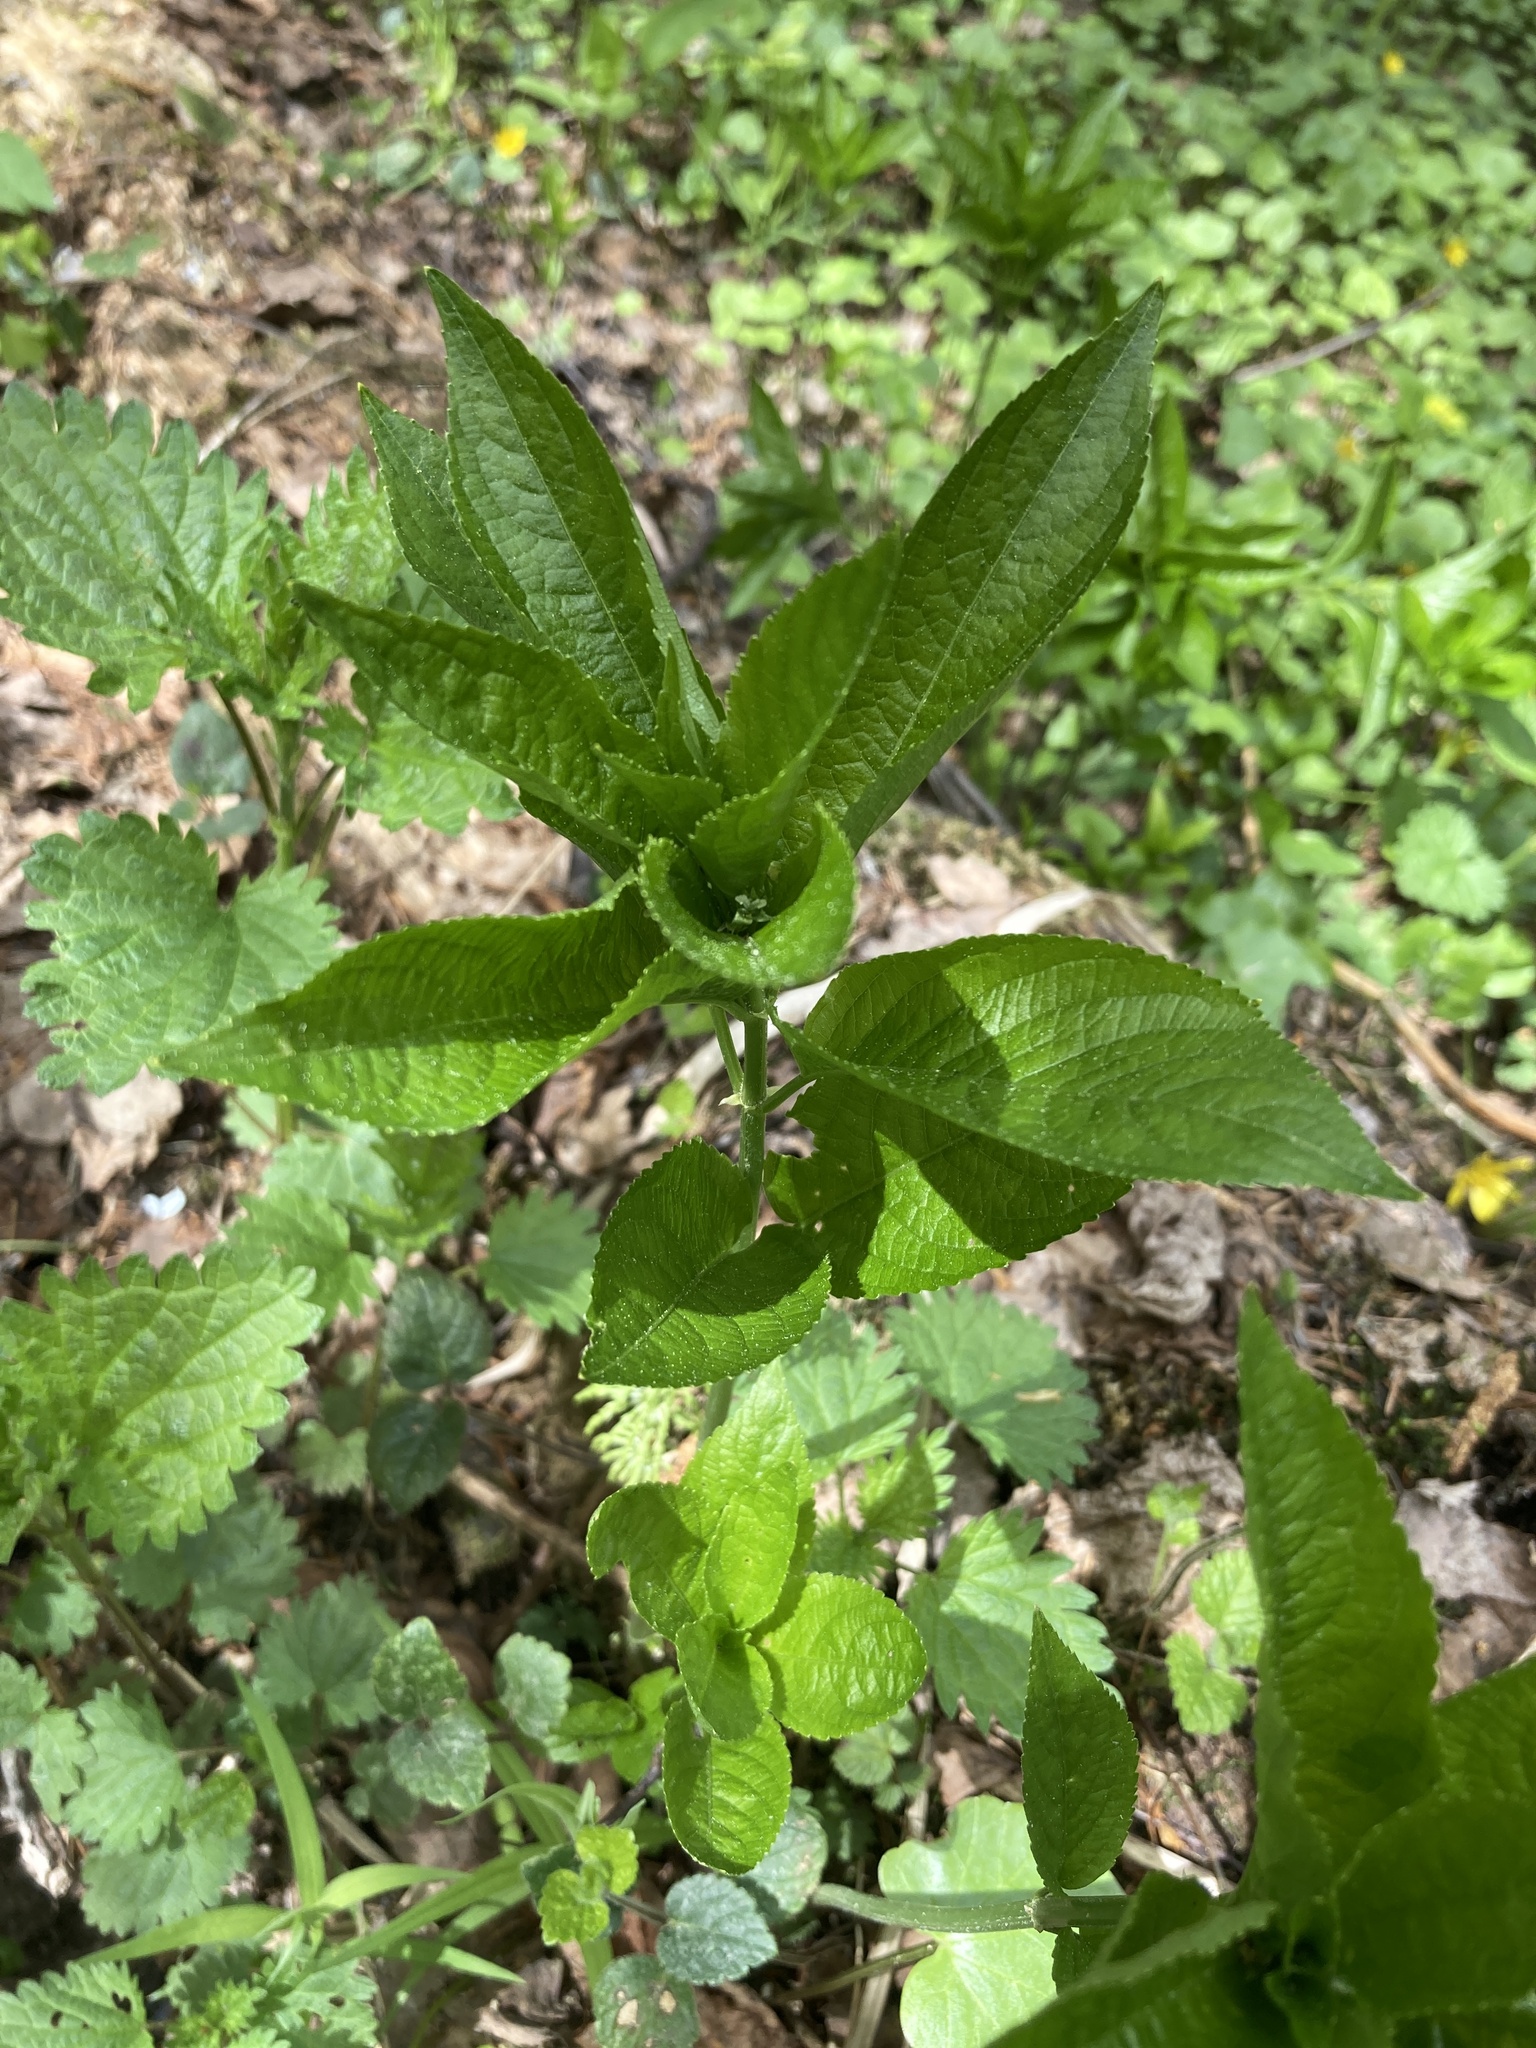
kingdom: Plantae
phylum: Tracheophyta
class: Magnoliopsida
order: Malpighiales
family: Euphorbiaceae
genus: Mercurialis
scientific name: Mercurialis perennis
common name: Dog mercury
